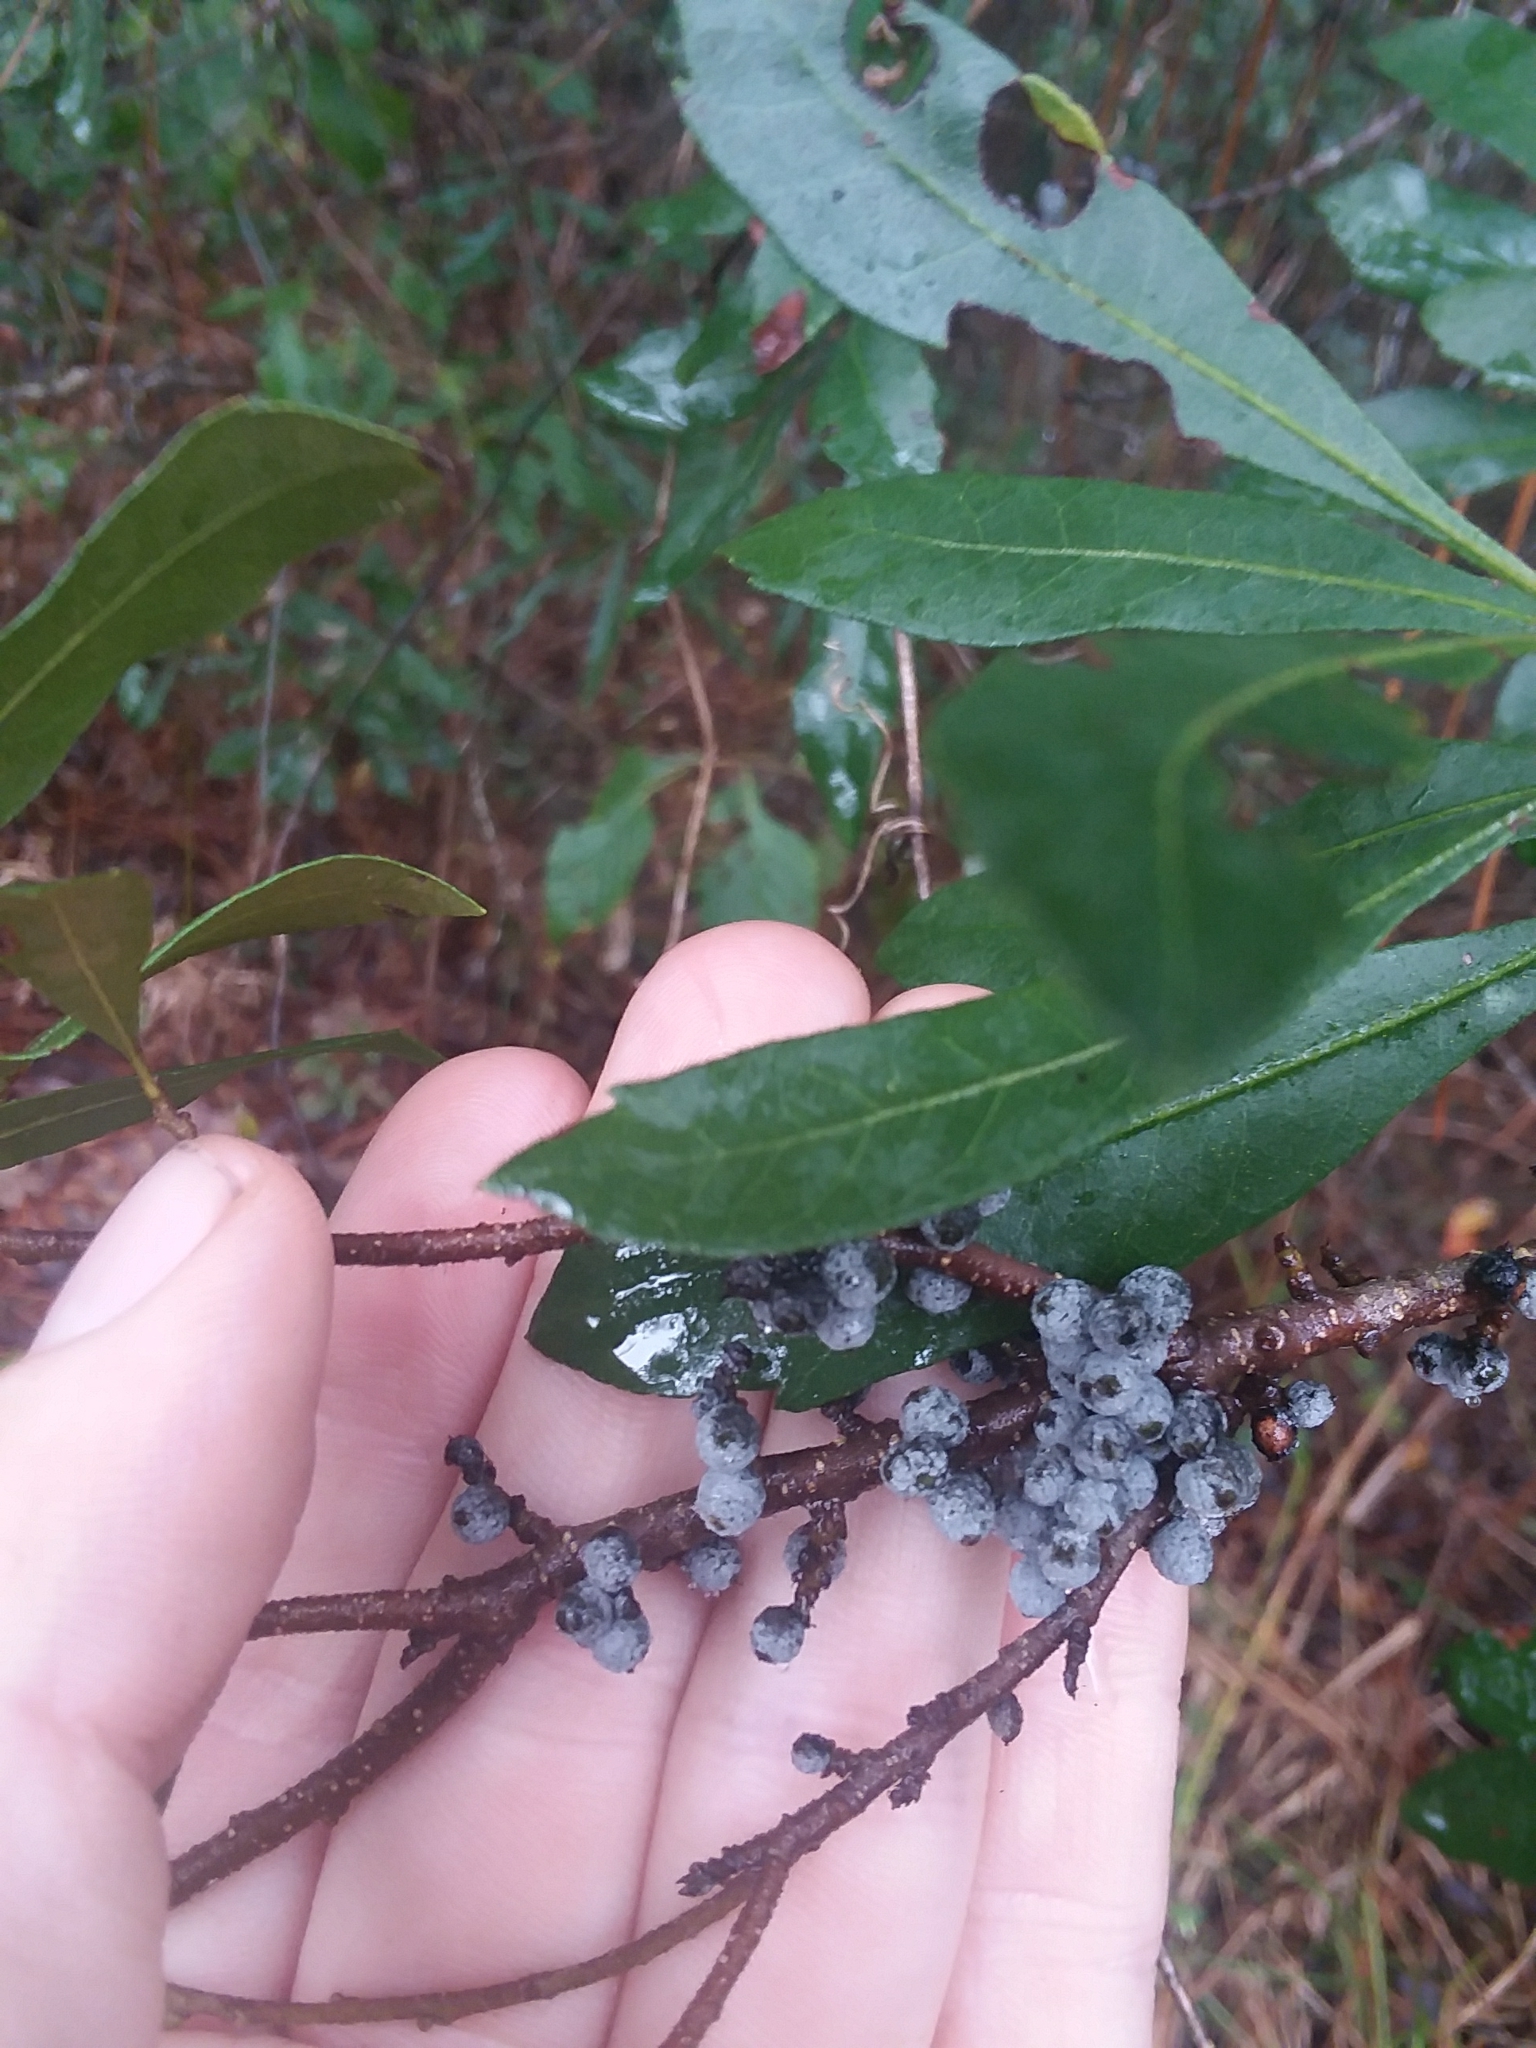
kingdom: Plantae
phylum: Tracheophyta
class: Magnoliopsida
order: Fagales
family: Myricaceae
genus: Morella
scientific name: Morella cerifera
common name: Wax myrtle
